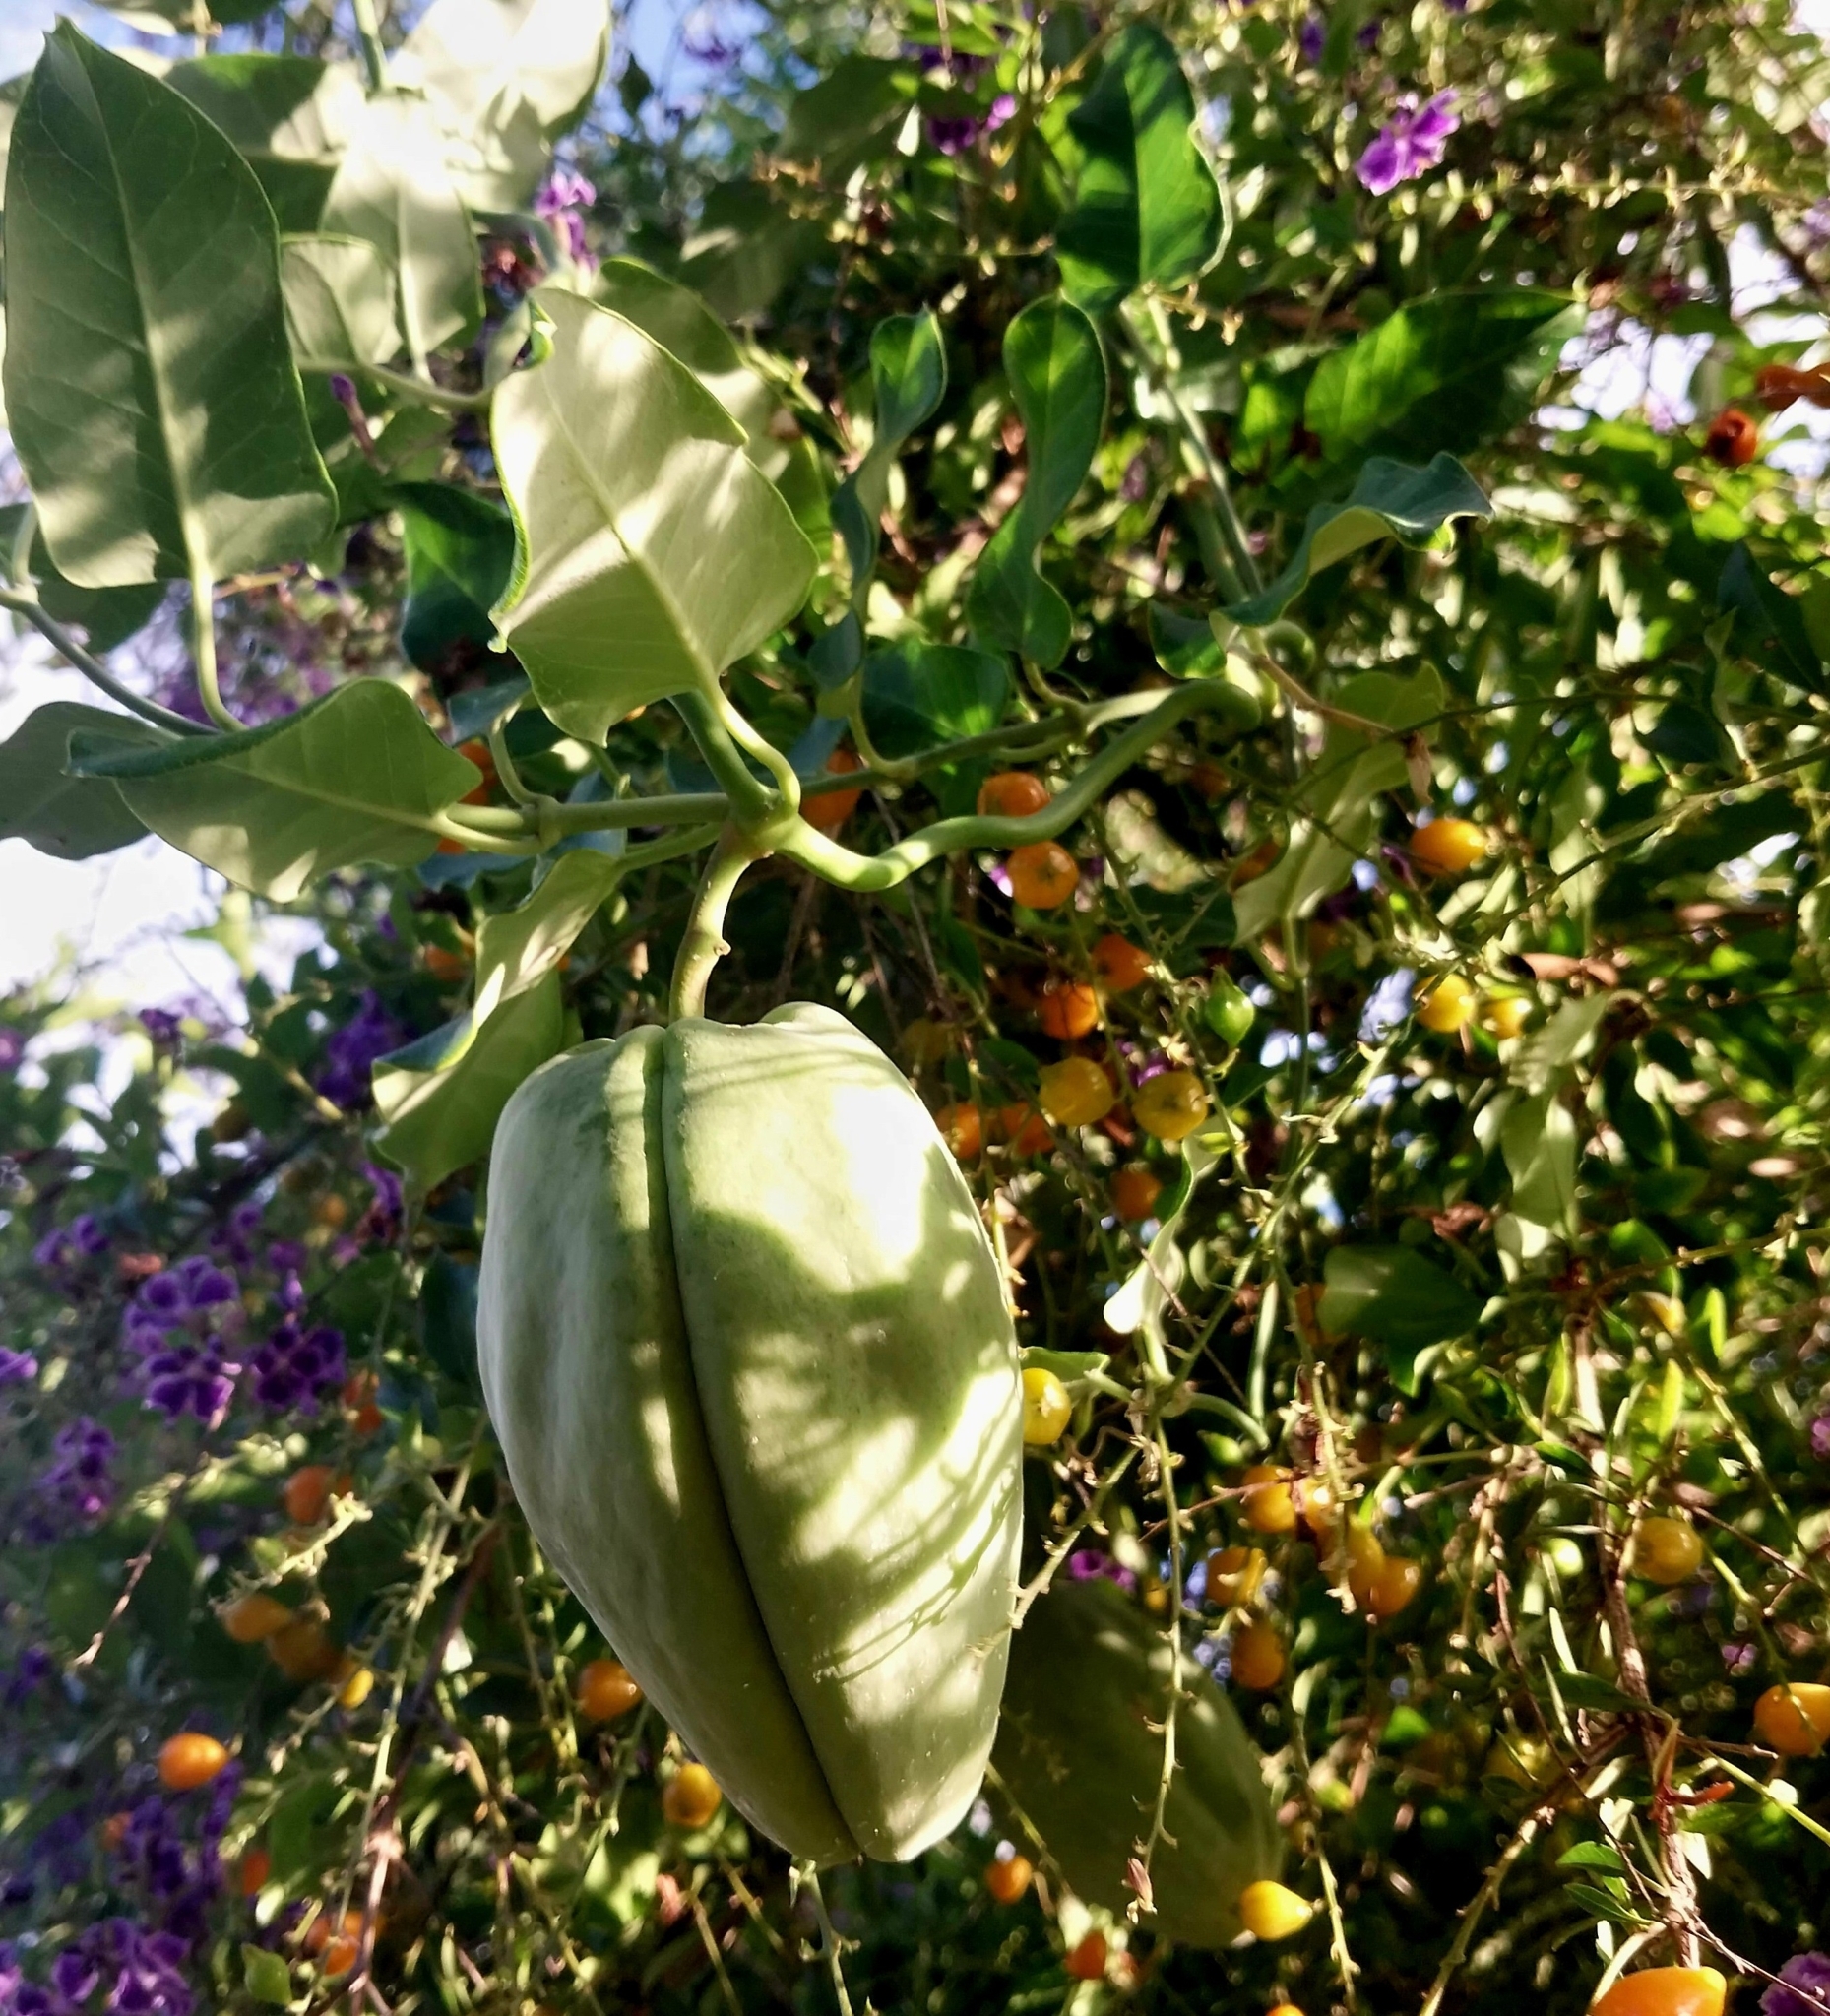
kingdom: Plantae
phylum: Tracheophyta
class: Magnoliopsida
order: Gentianales
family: Apocynaceae
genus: Araujia
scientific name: Araujia sericifera
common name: White bladderflower
